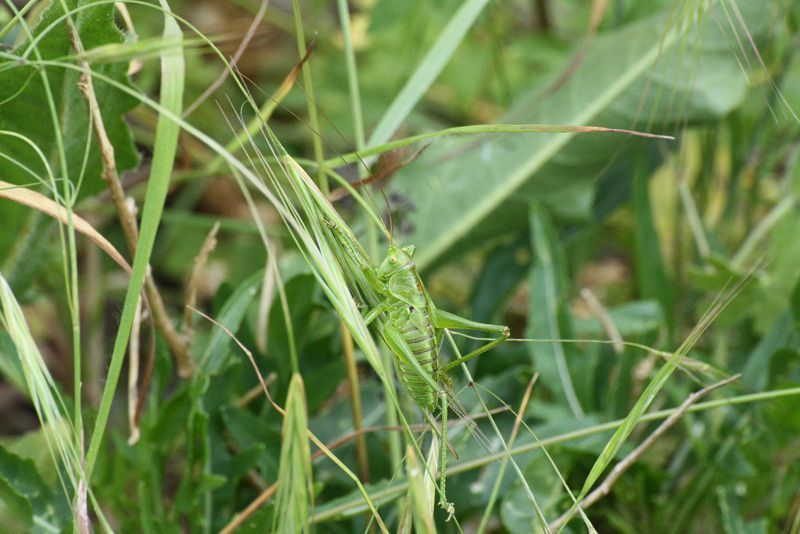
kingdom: Animalia
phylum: Arthropoda
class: Insecta
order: Orthoptera
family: Tettigoniidae
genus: Tettigonia
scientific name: Tettigonia viridissima
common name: Great green bush-cricket
